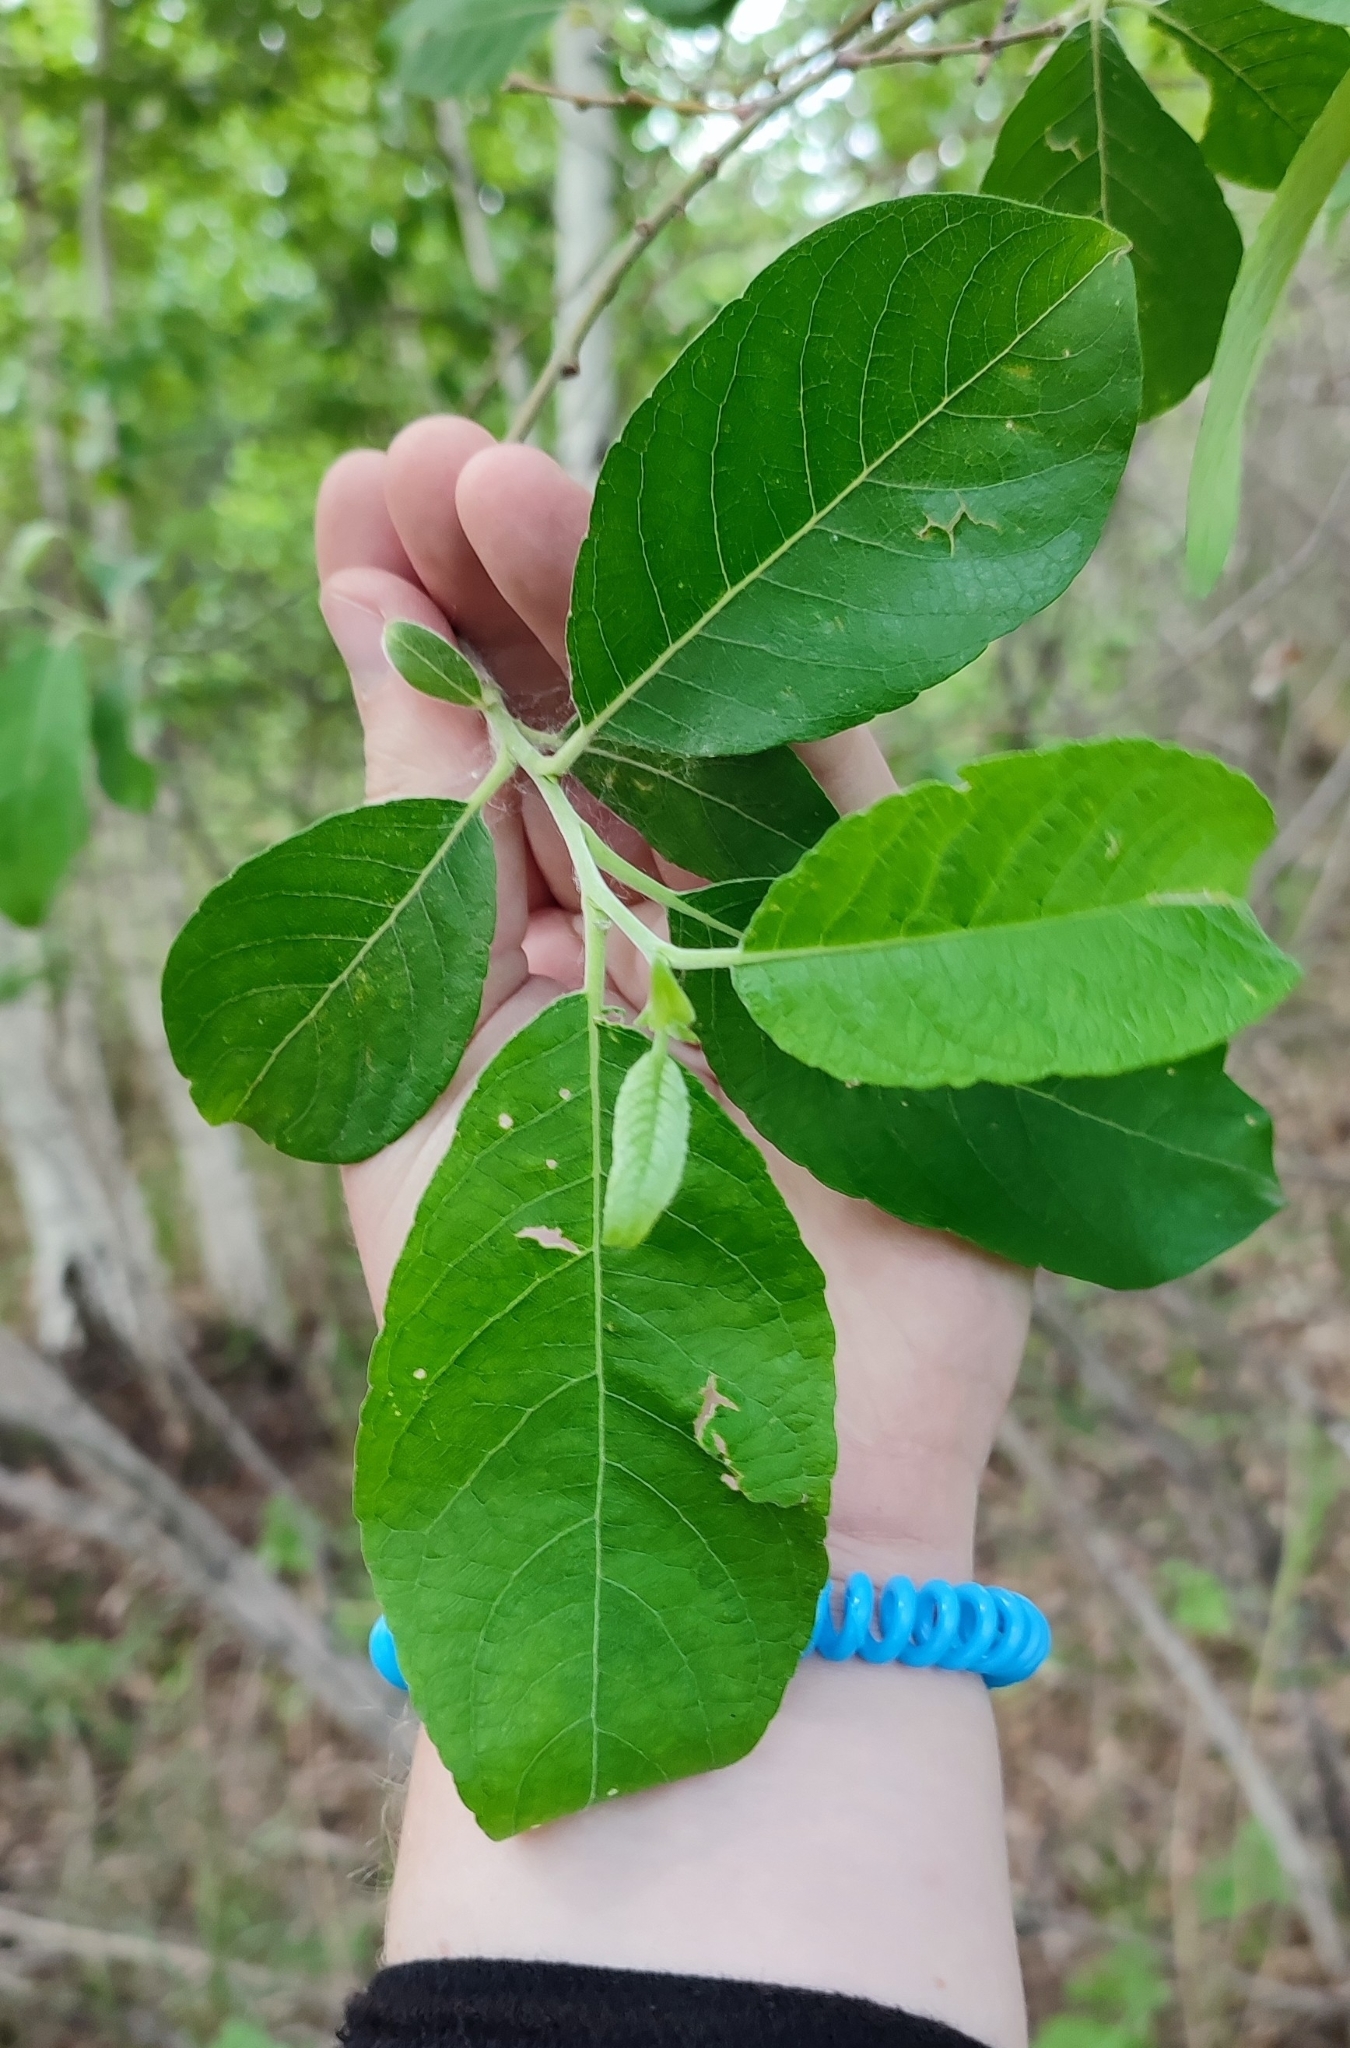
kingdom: Plantae
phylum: Tracheophyta
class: Magnoliopsida
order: Malpighiales
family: Salicaceae
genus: Salix
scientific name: Salix cinerea
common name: Common sallow
